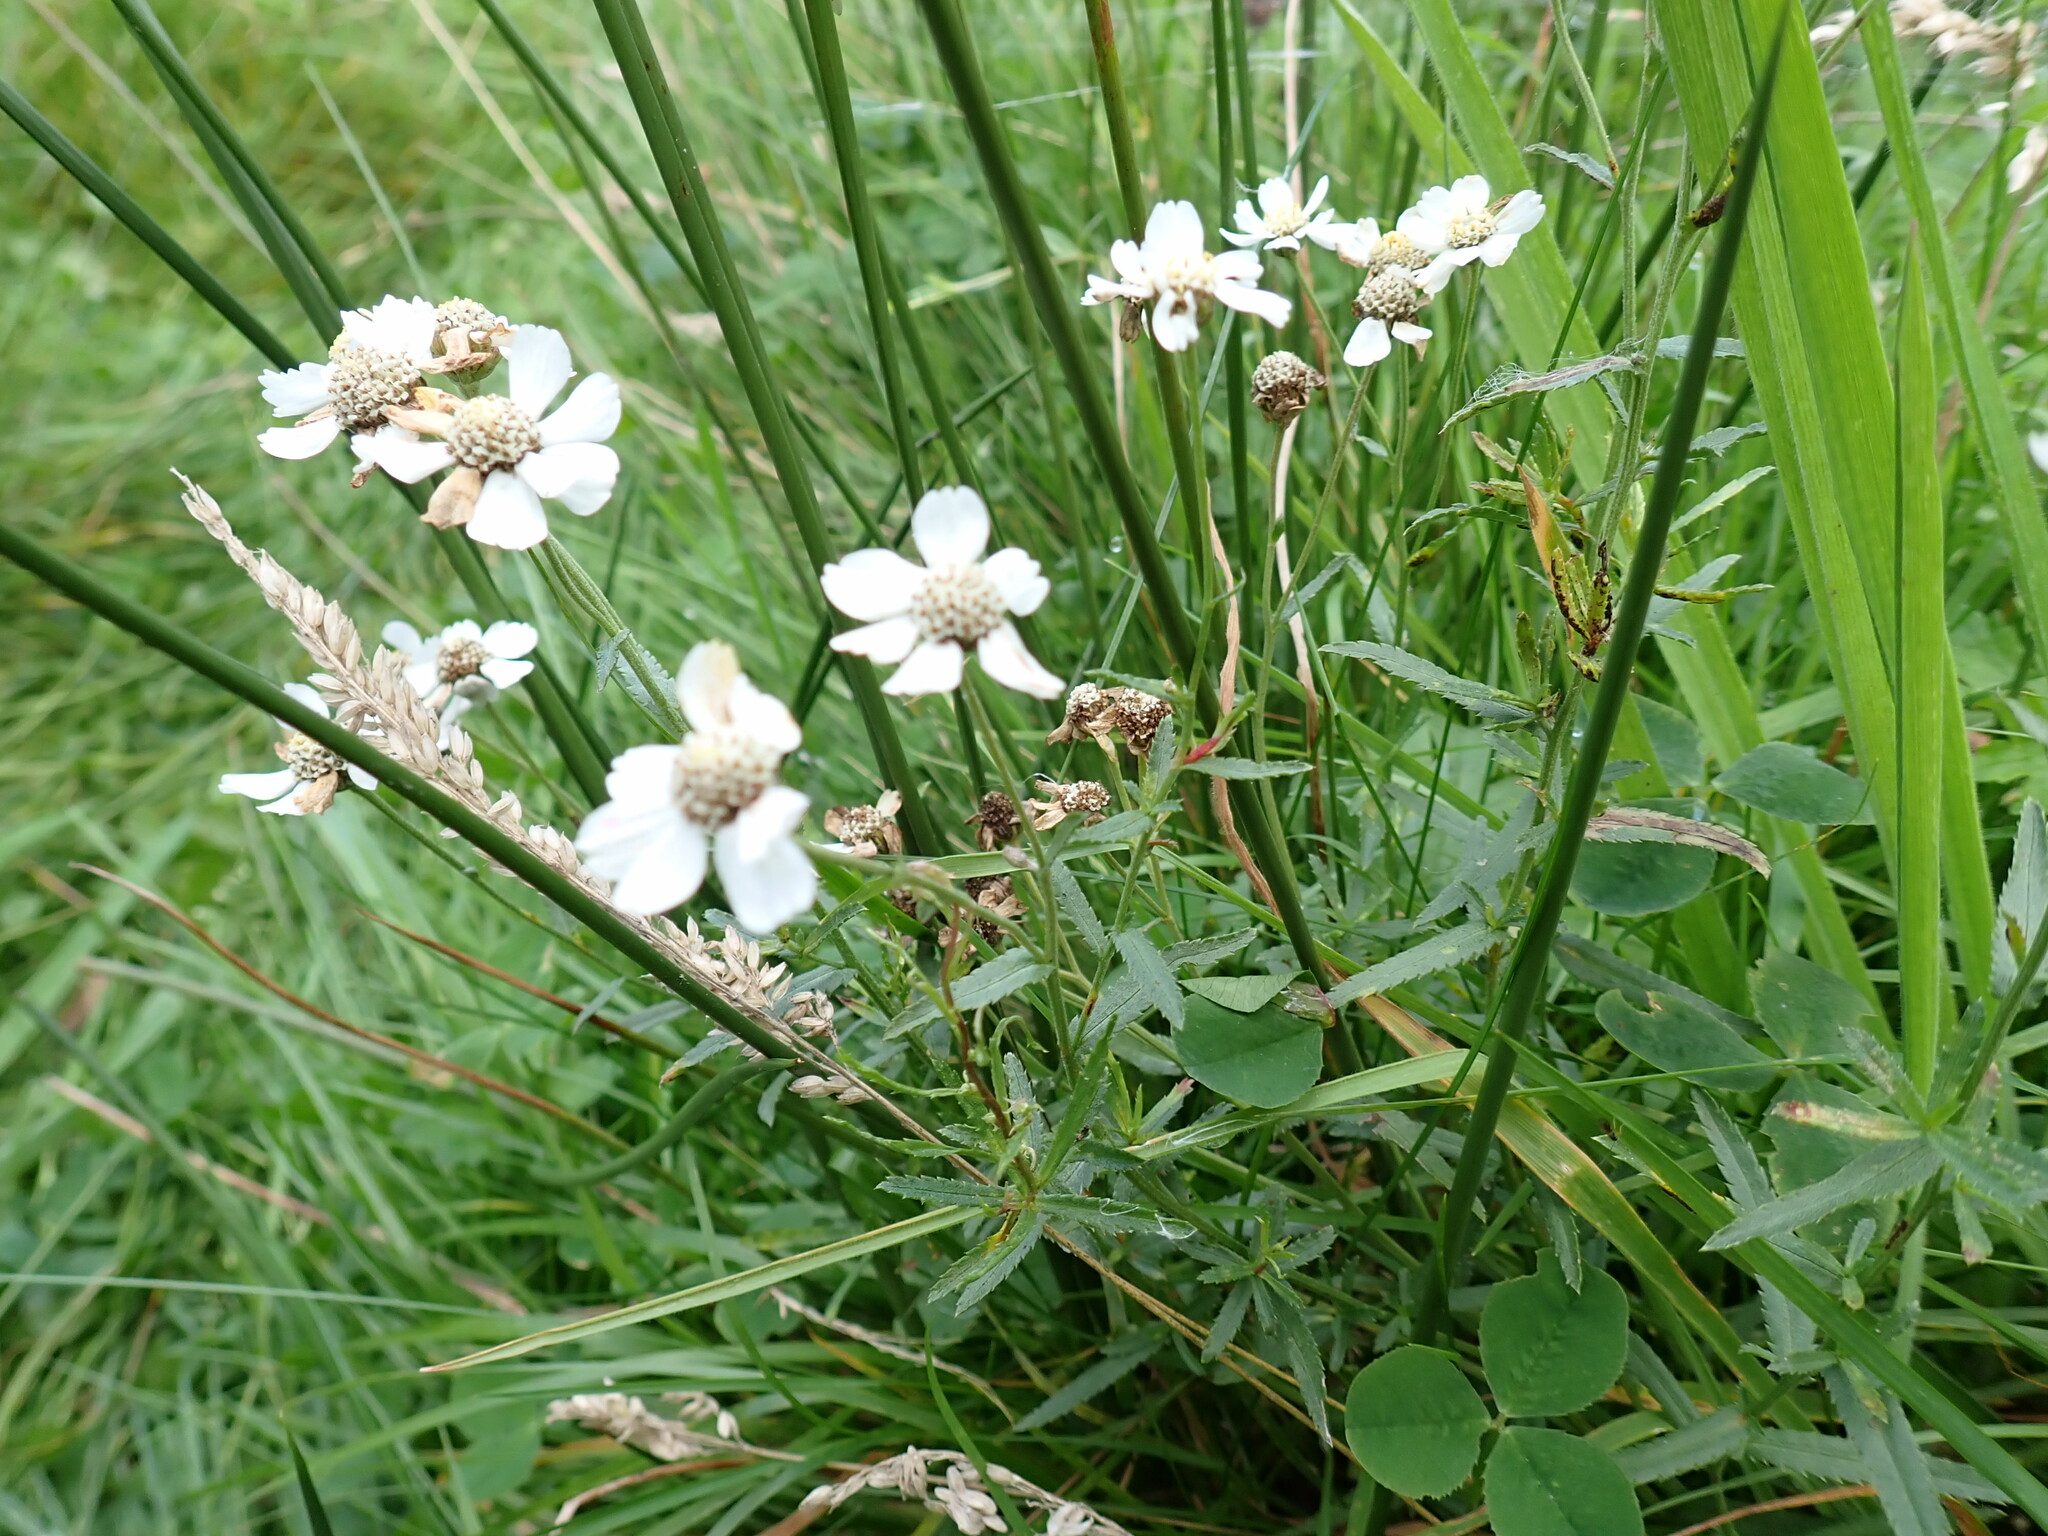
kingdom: Plantae
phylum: Tracheophyta
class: Magnoliopsida
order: Asterales
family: Asteraceae
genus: Achillea
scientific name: Achillea ptarmica
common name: Sneezeweed
